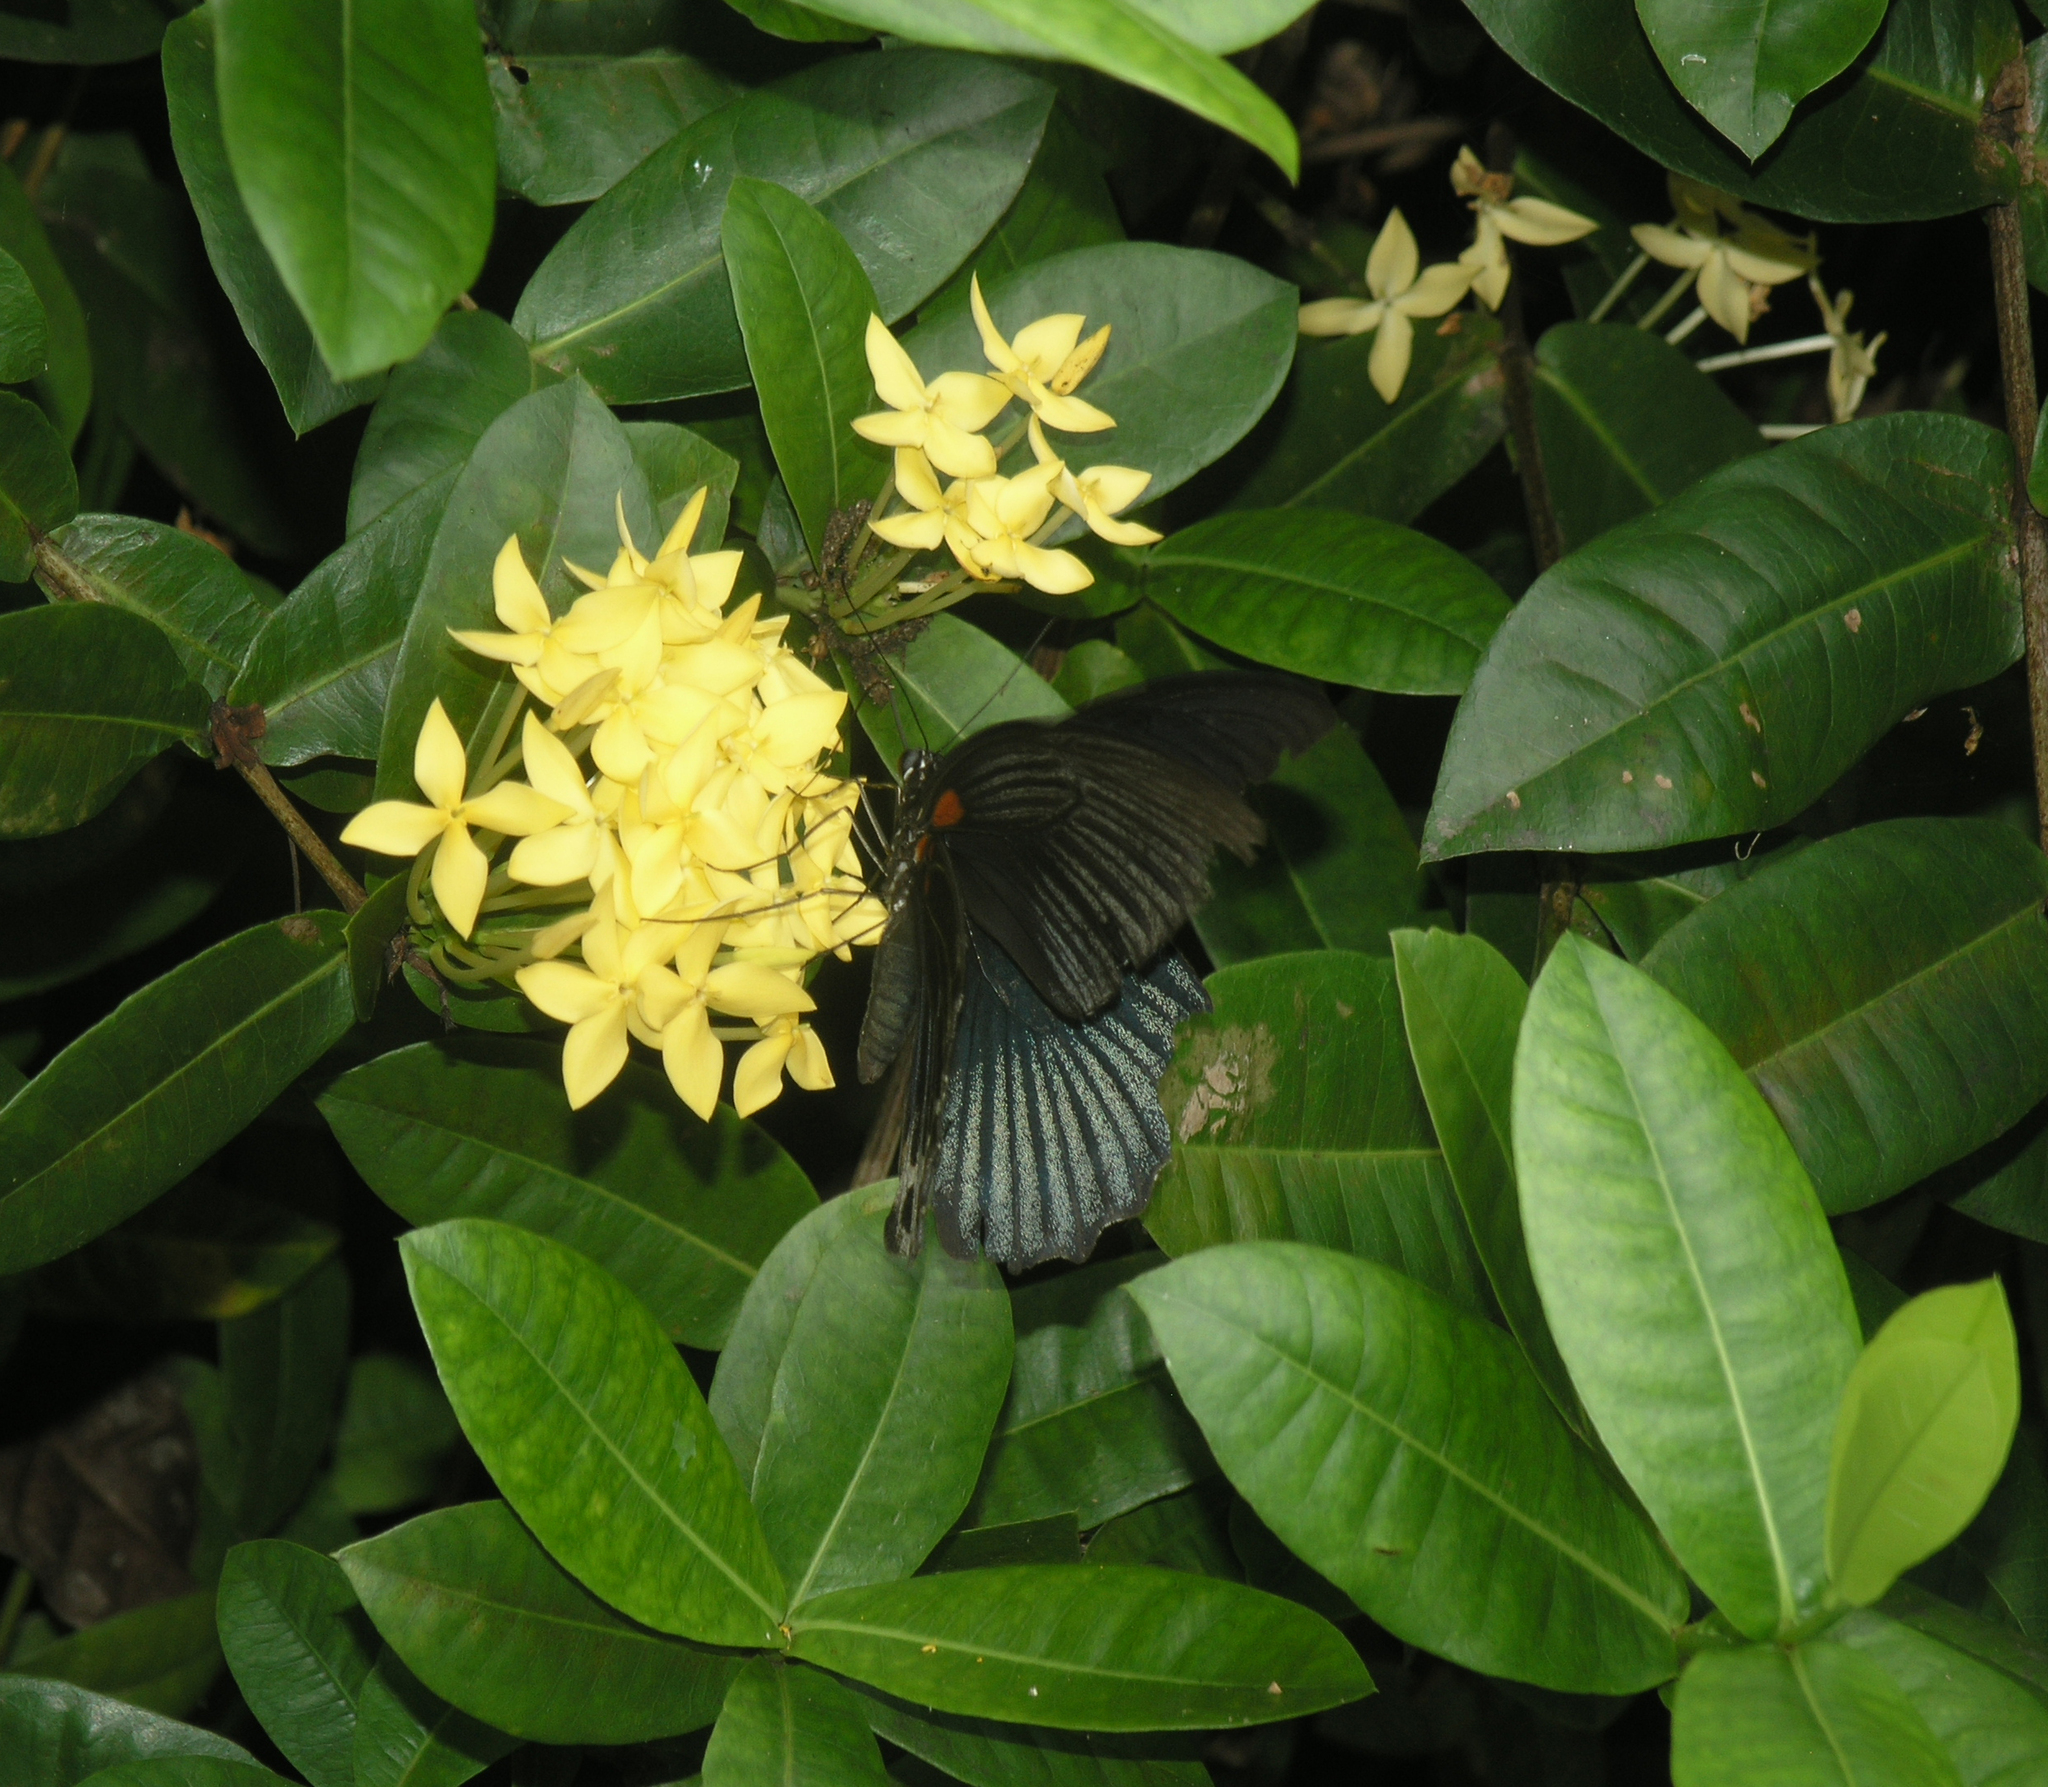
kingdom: Animalia
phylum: Arthropoda
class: Insecta
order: Lepidoptera
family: Papilionidae
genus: Papilio
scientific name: Papilio memnon
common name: Great mormon
